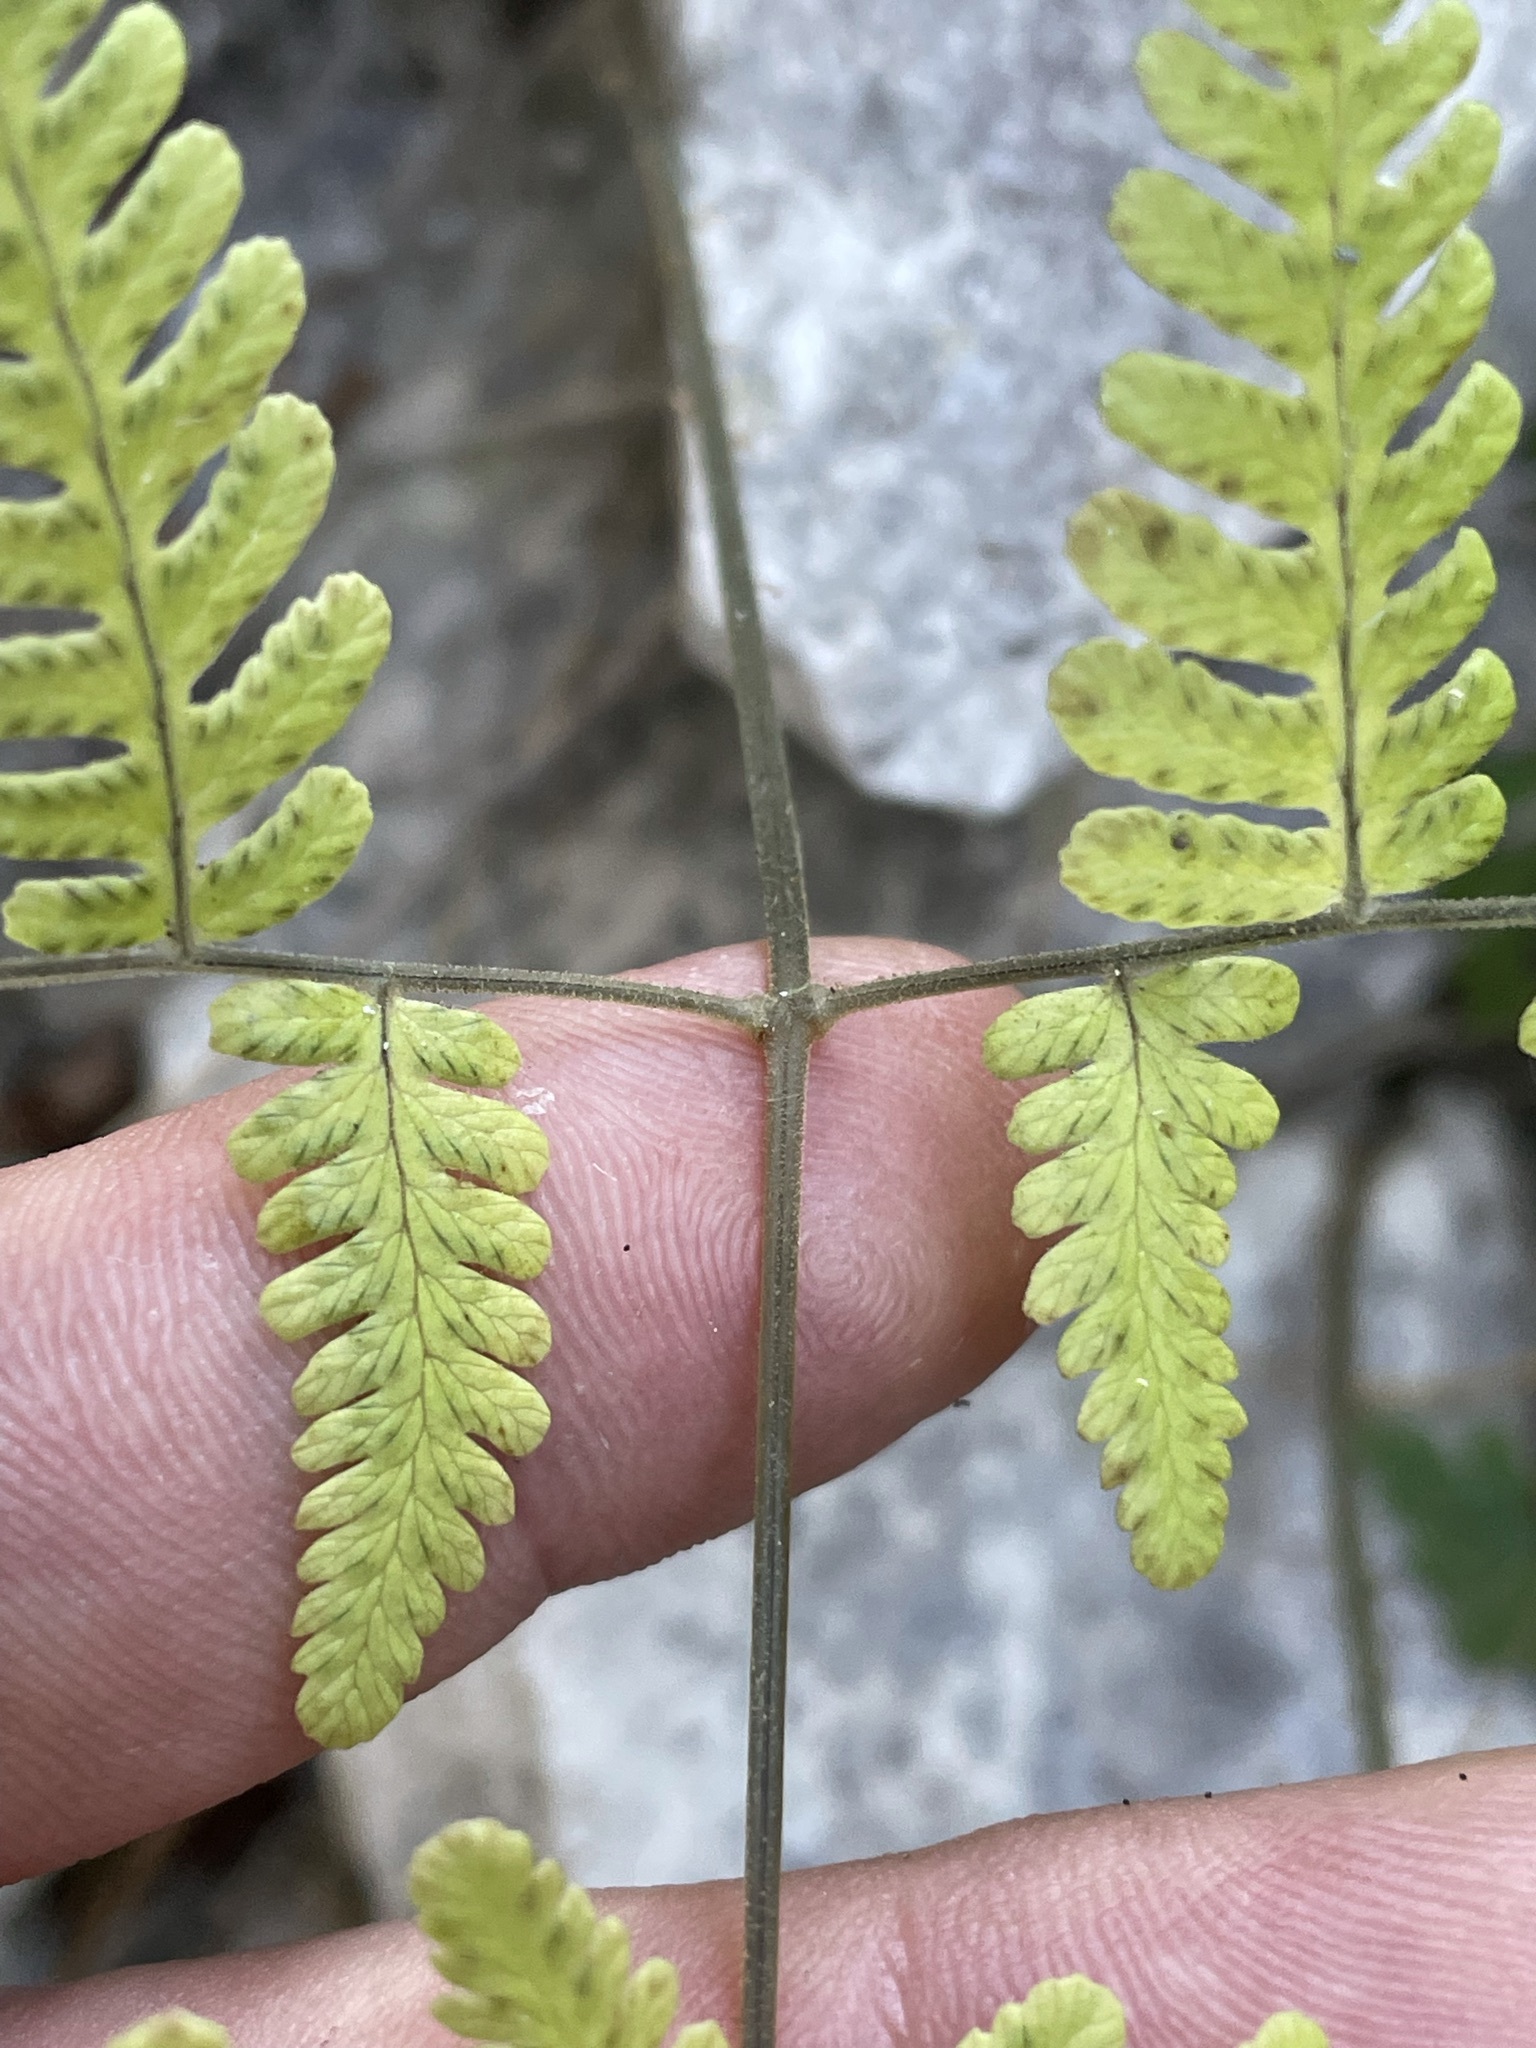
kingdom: Plantae
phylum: Tracheophyta
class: Polypodiopsida
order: Polypodiales
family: Cystopteridaceae
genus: Gymnocarpium
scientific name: Gymnocarpium robertianum
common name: Limestone fern
